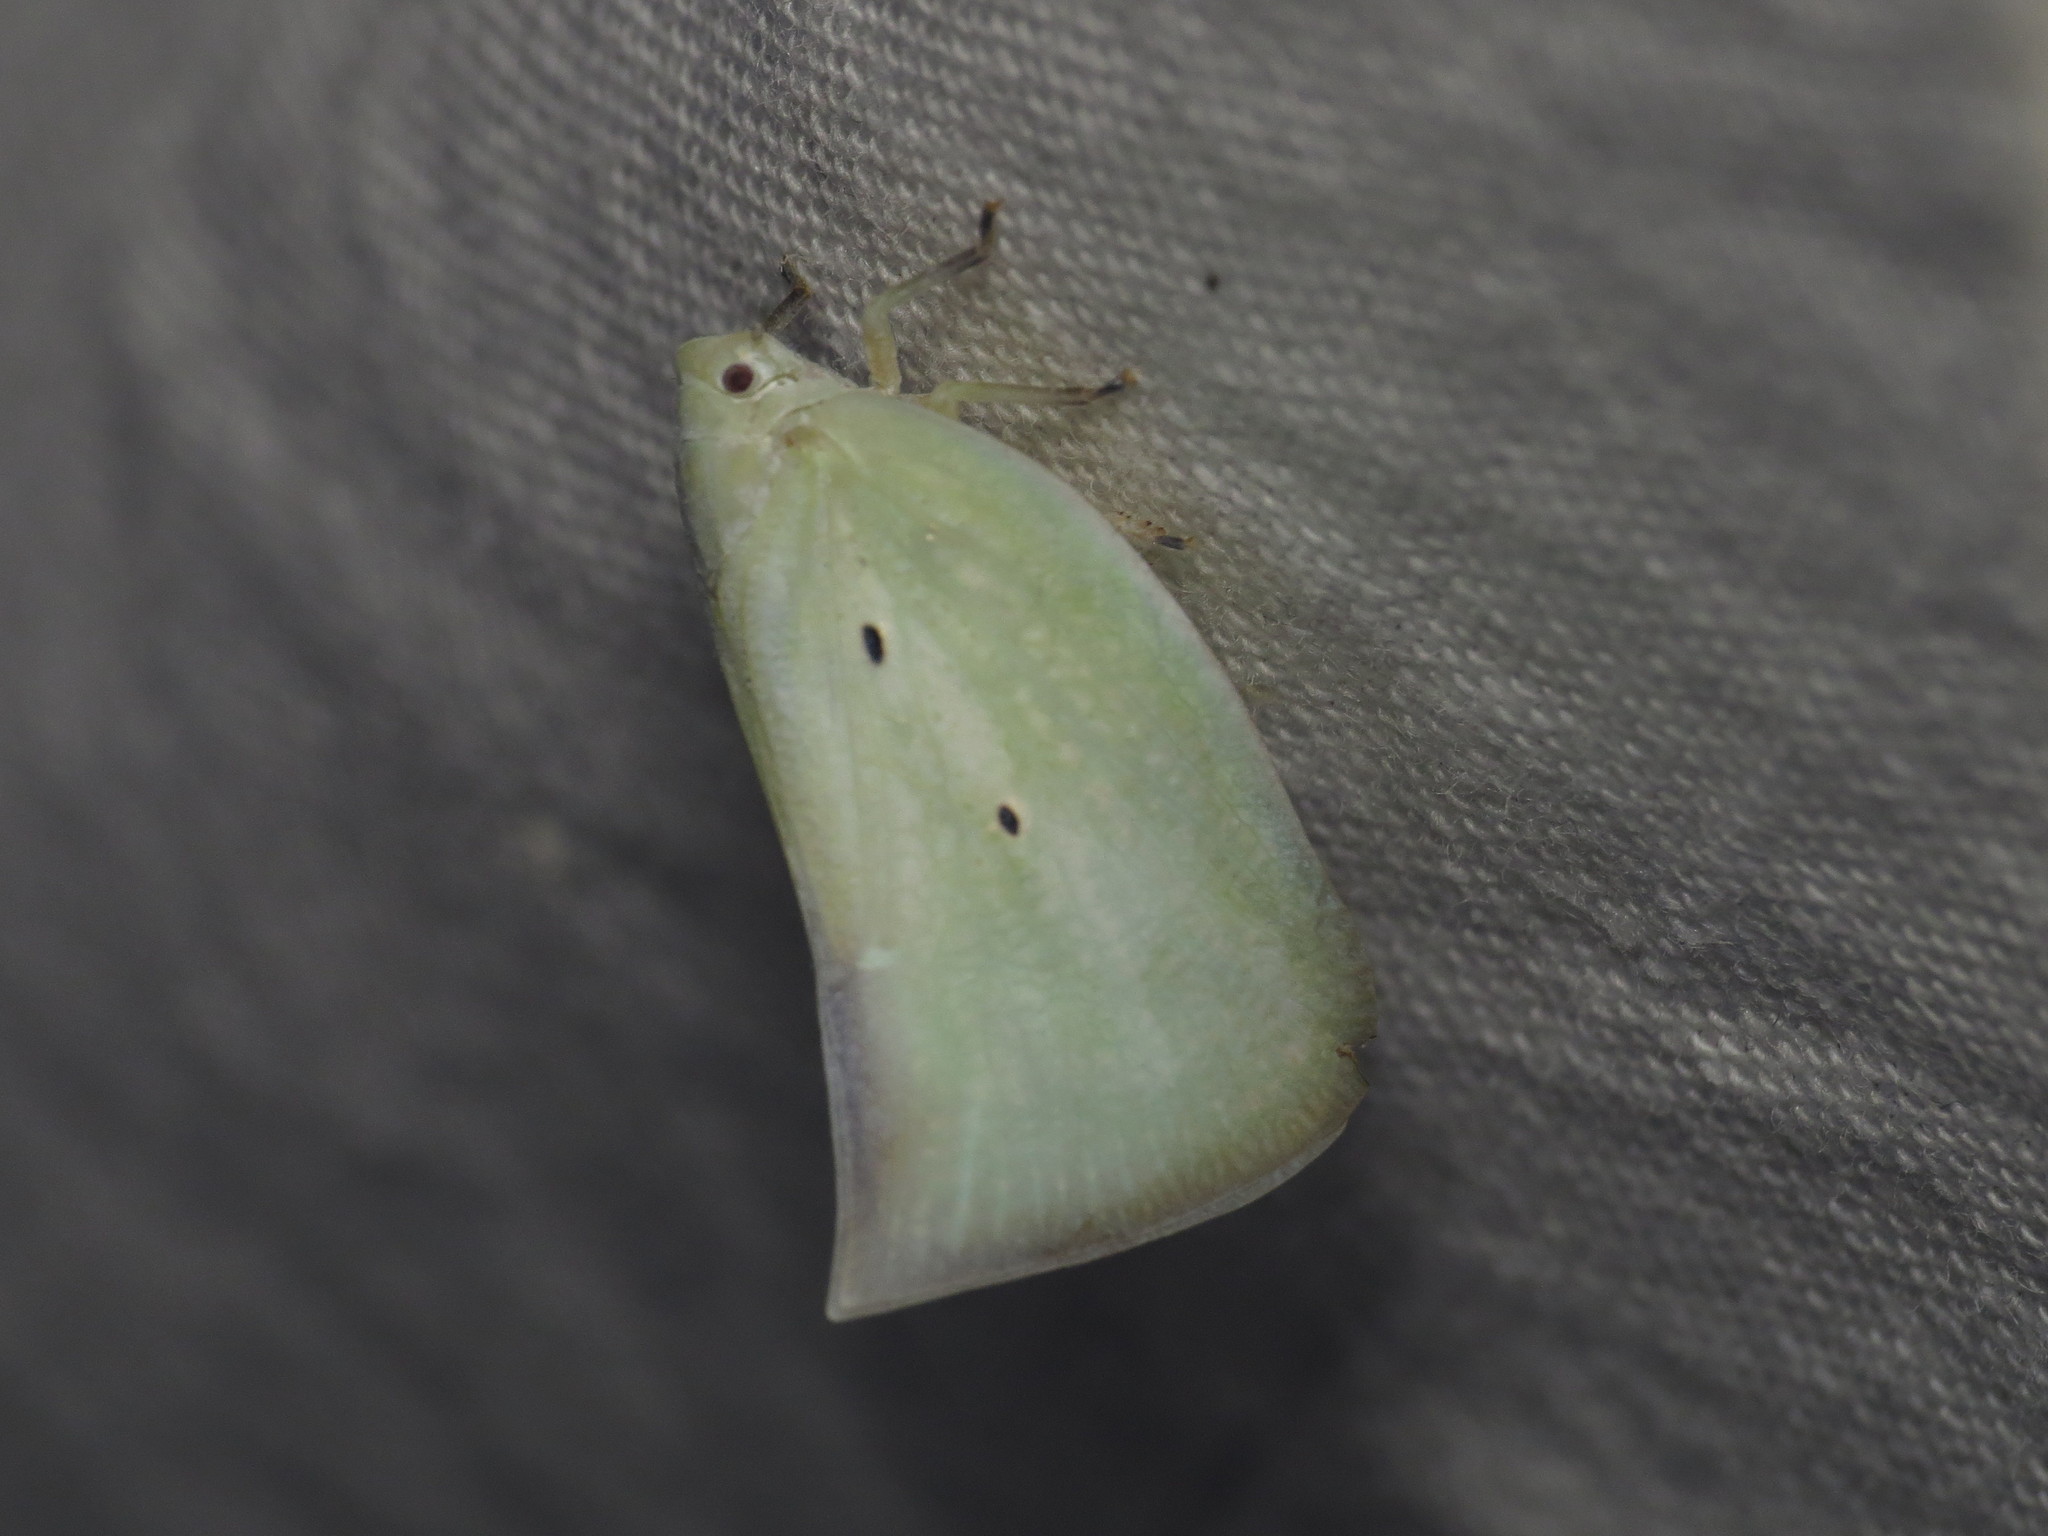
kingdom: Animalia
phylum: Arthropoda
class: Insecta
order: Hemiptera
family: Flatidae
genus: Paradaksha
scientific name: Paradaksha meeki
